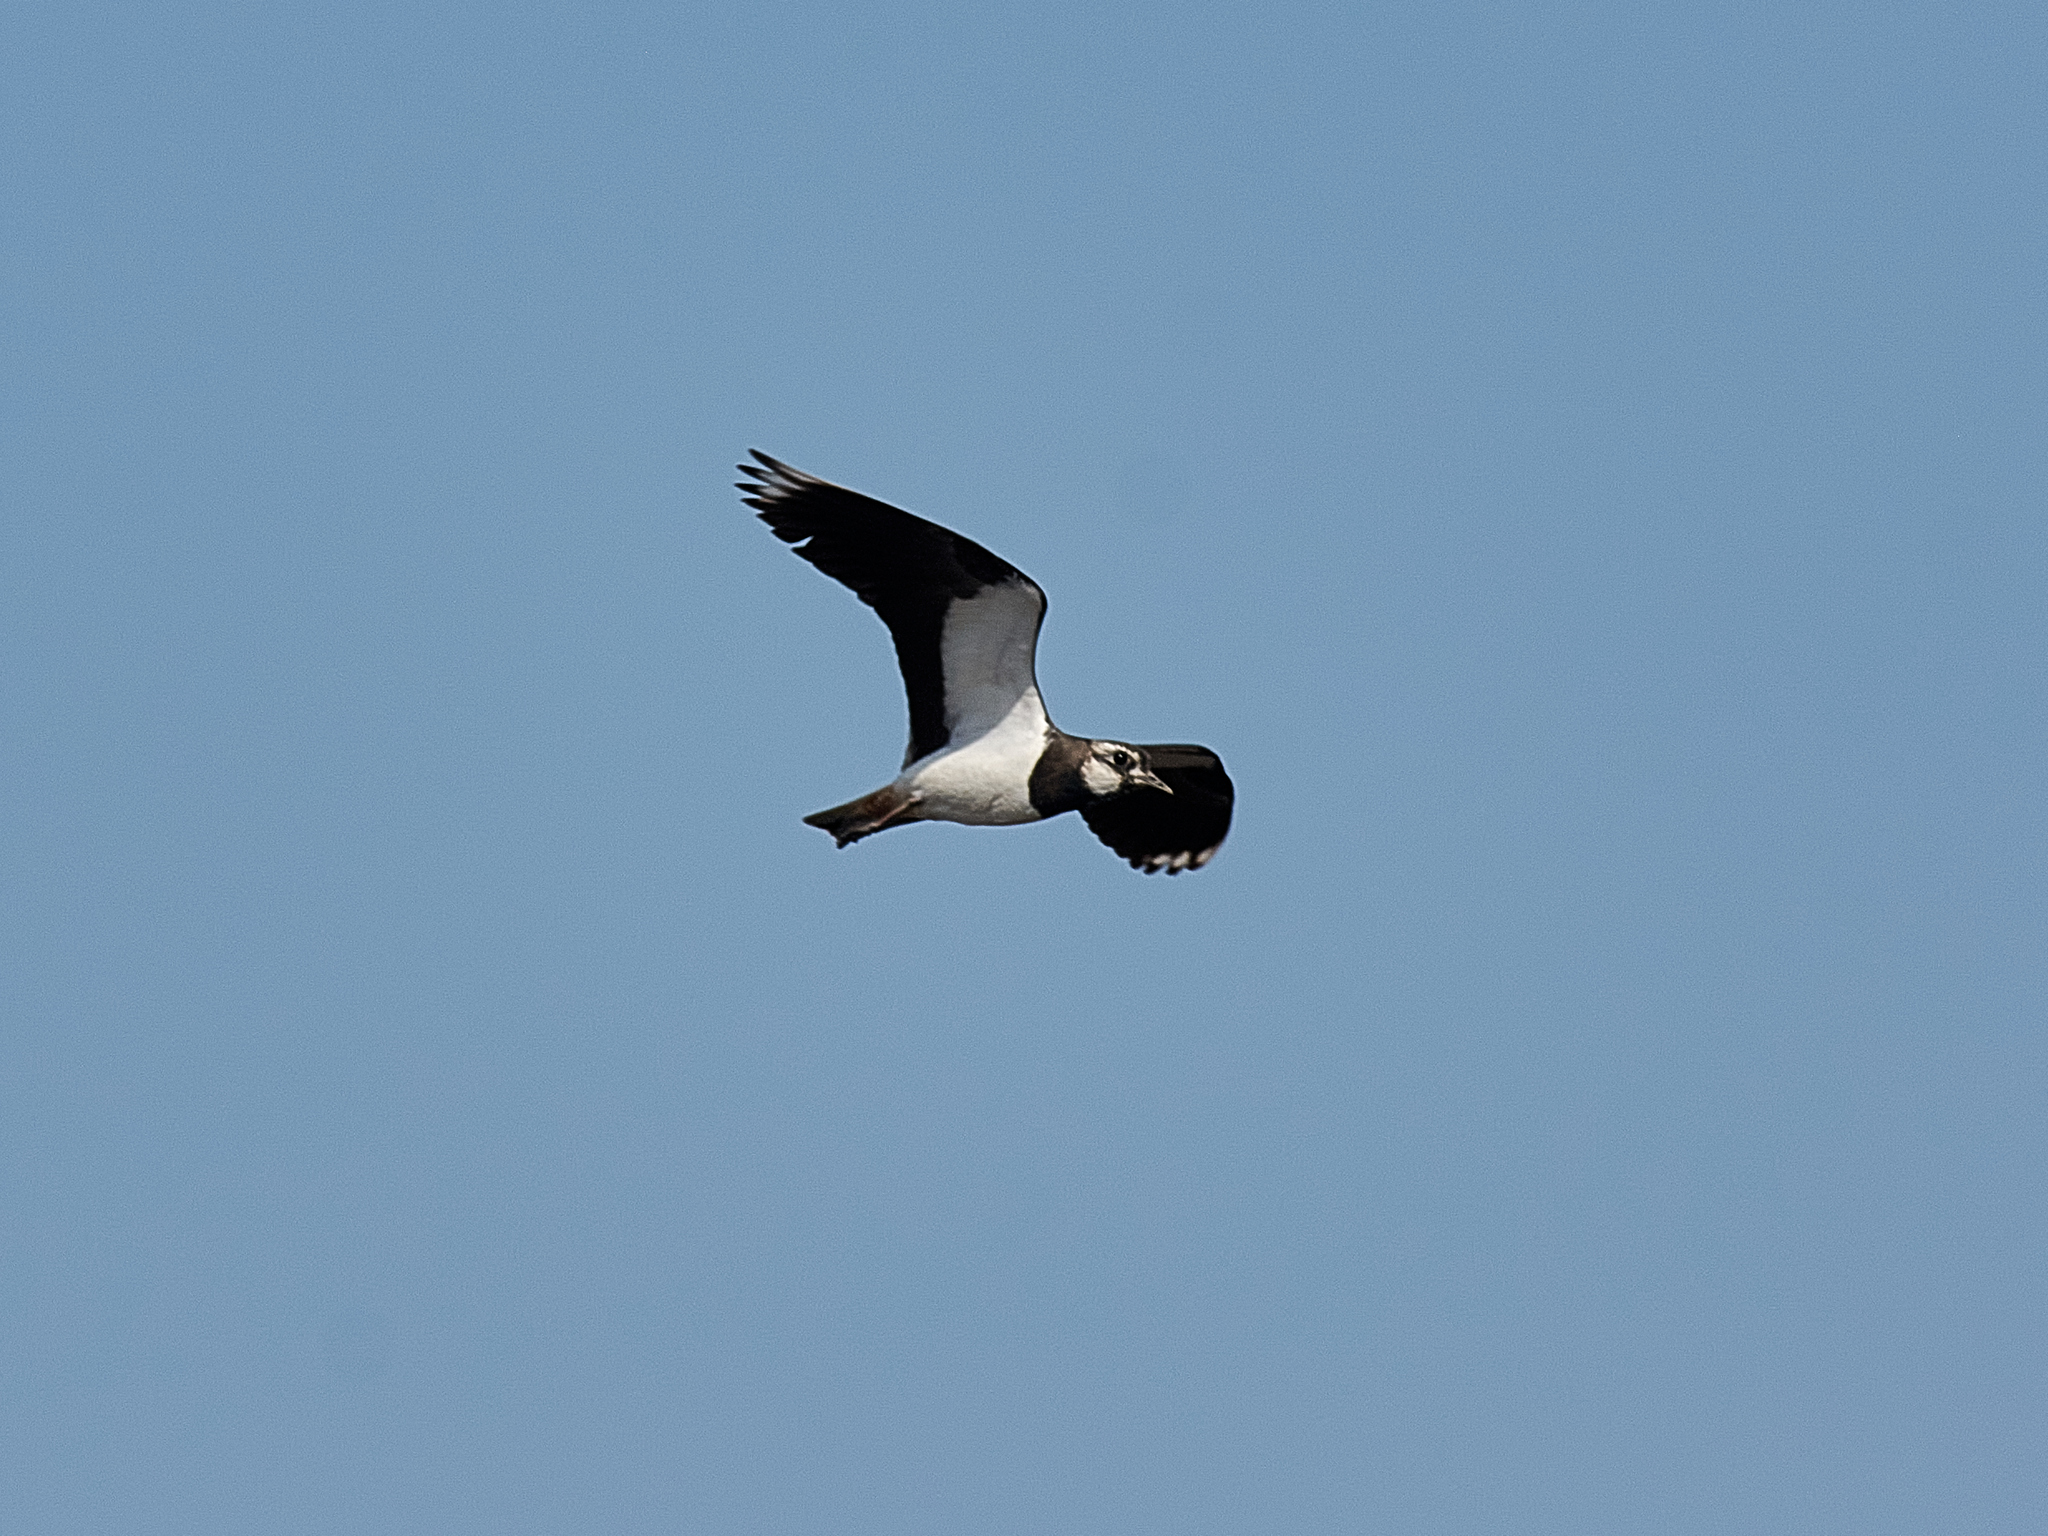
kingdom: Animalia
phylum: Chordata
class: Aves
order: Charadriiformes
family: Charadriidae
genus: Vanellus
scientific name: Vanellus vanellus
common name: Northern lapwing
